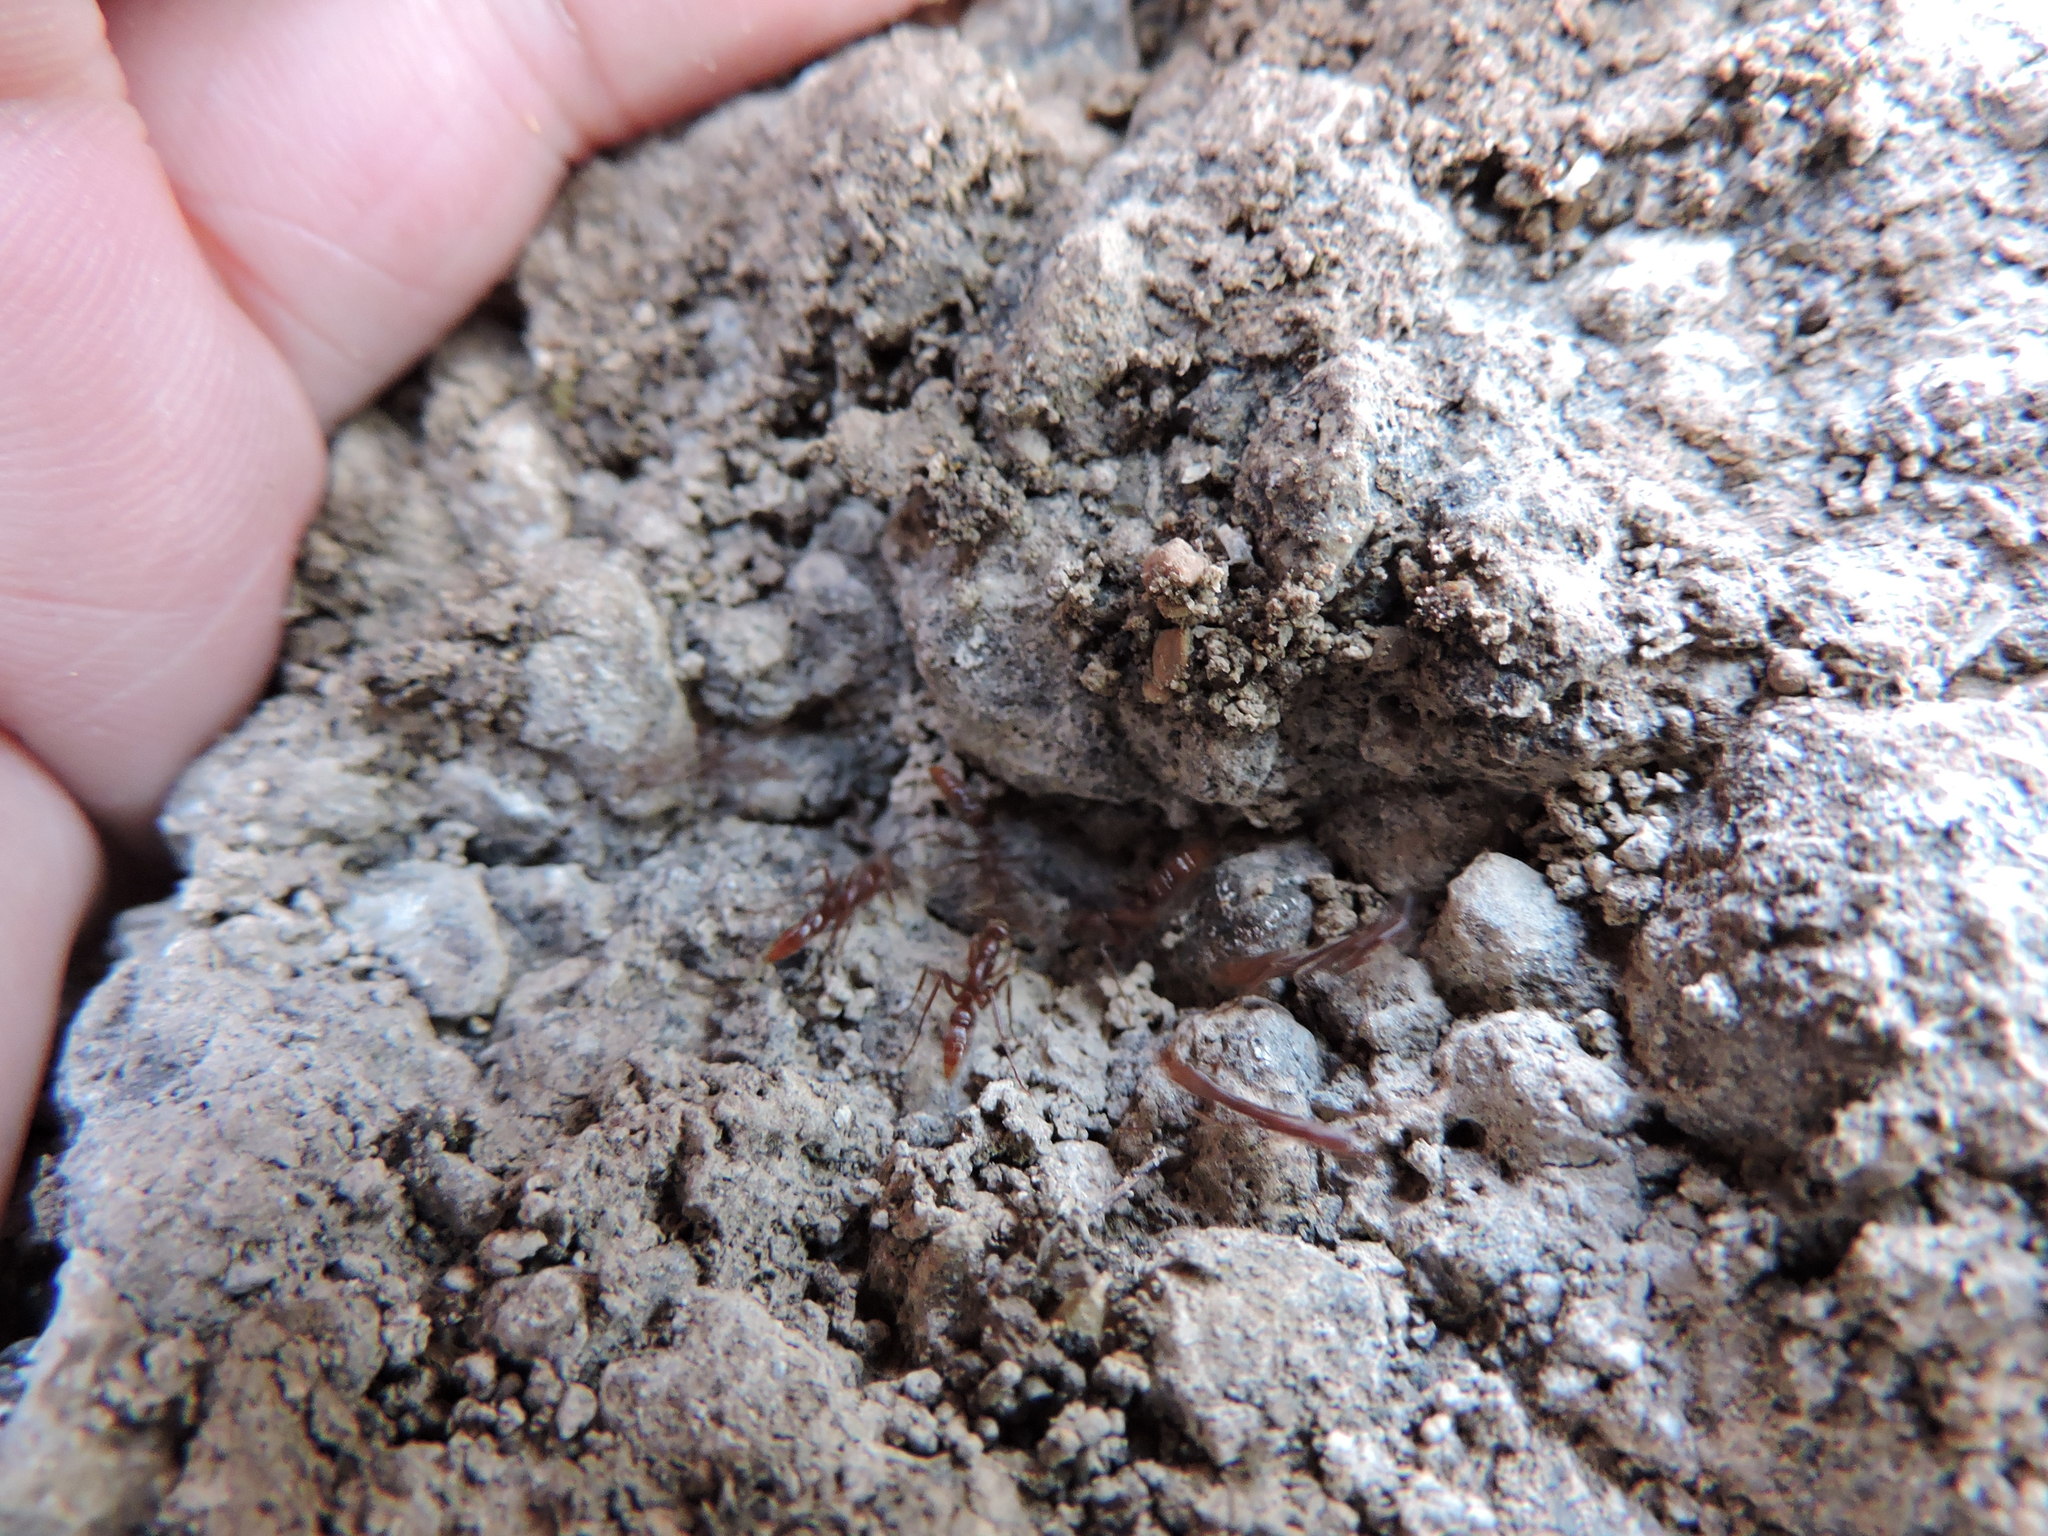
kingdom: Animalia
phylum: Arthropoda
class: Insecta
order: Hymenoptera
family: Formicidae
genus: Leptogenys
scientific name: Leptogenys elongata
